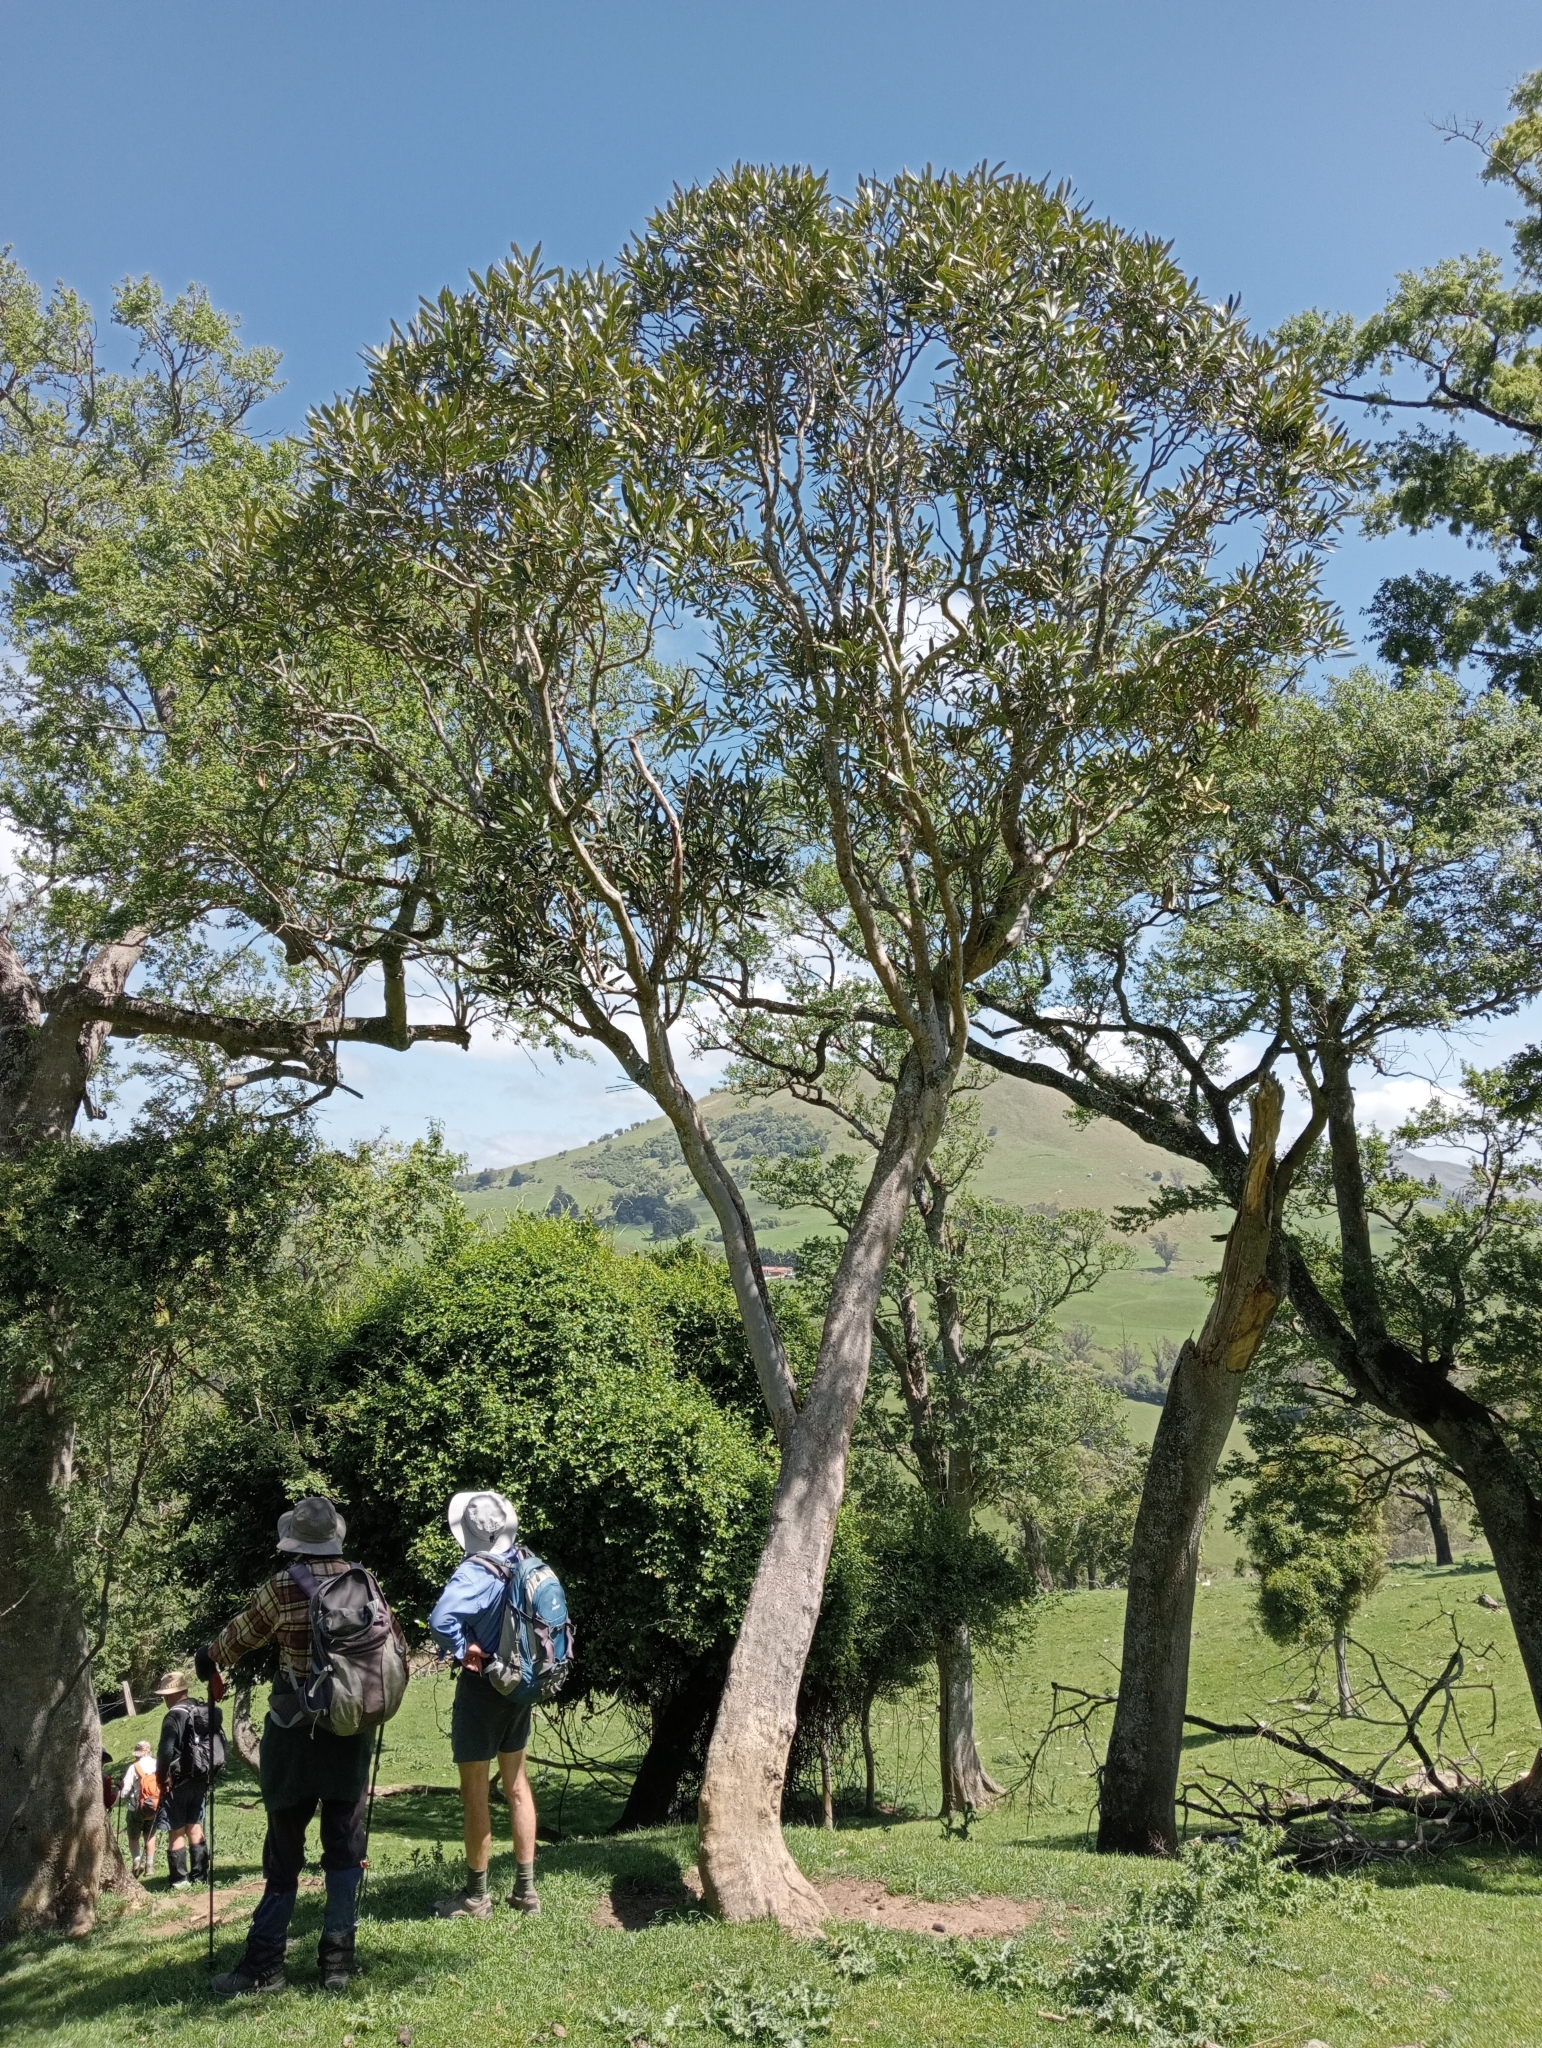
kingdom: Plantae
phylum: Tracheophyta
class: Magnoliopsida
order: Apiales
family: Araliaceae
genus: Pseudopanax
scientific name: Pseudopanax crassifolius
